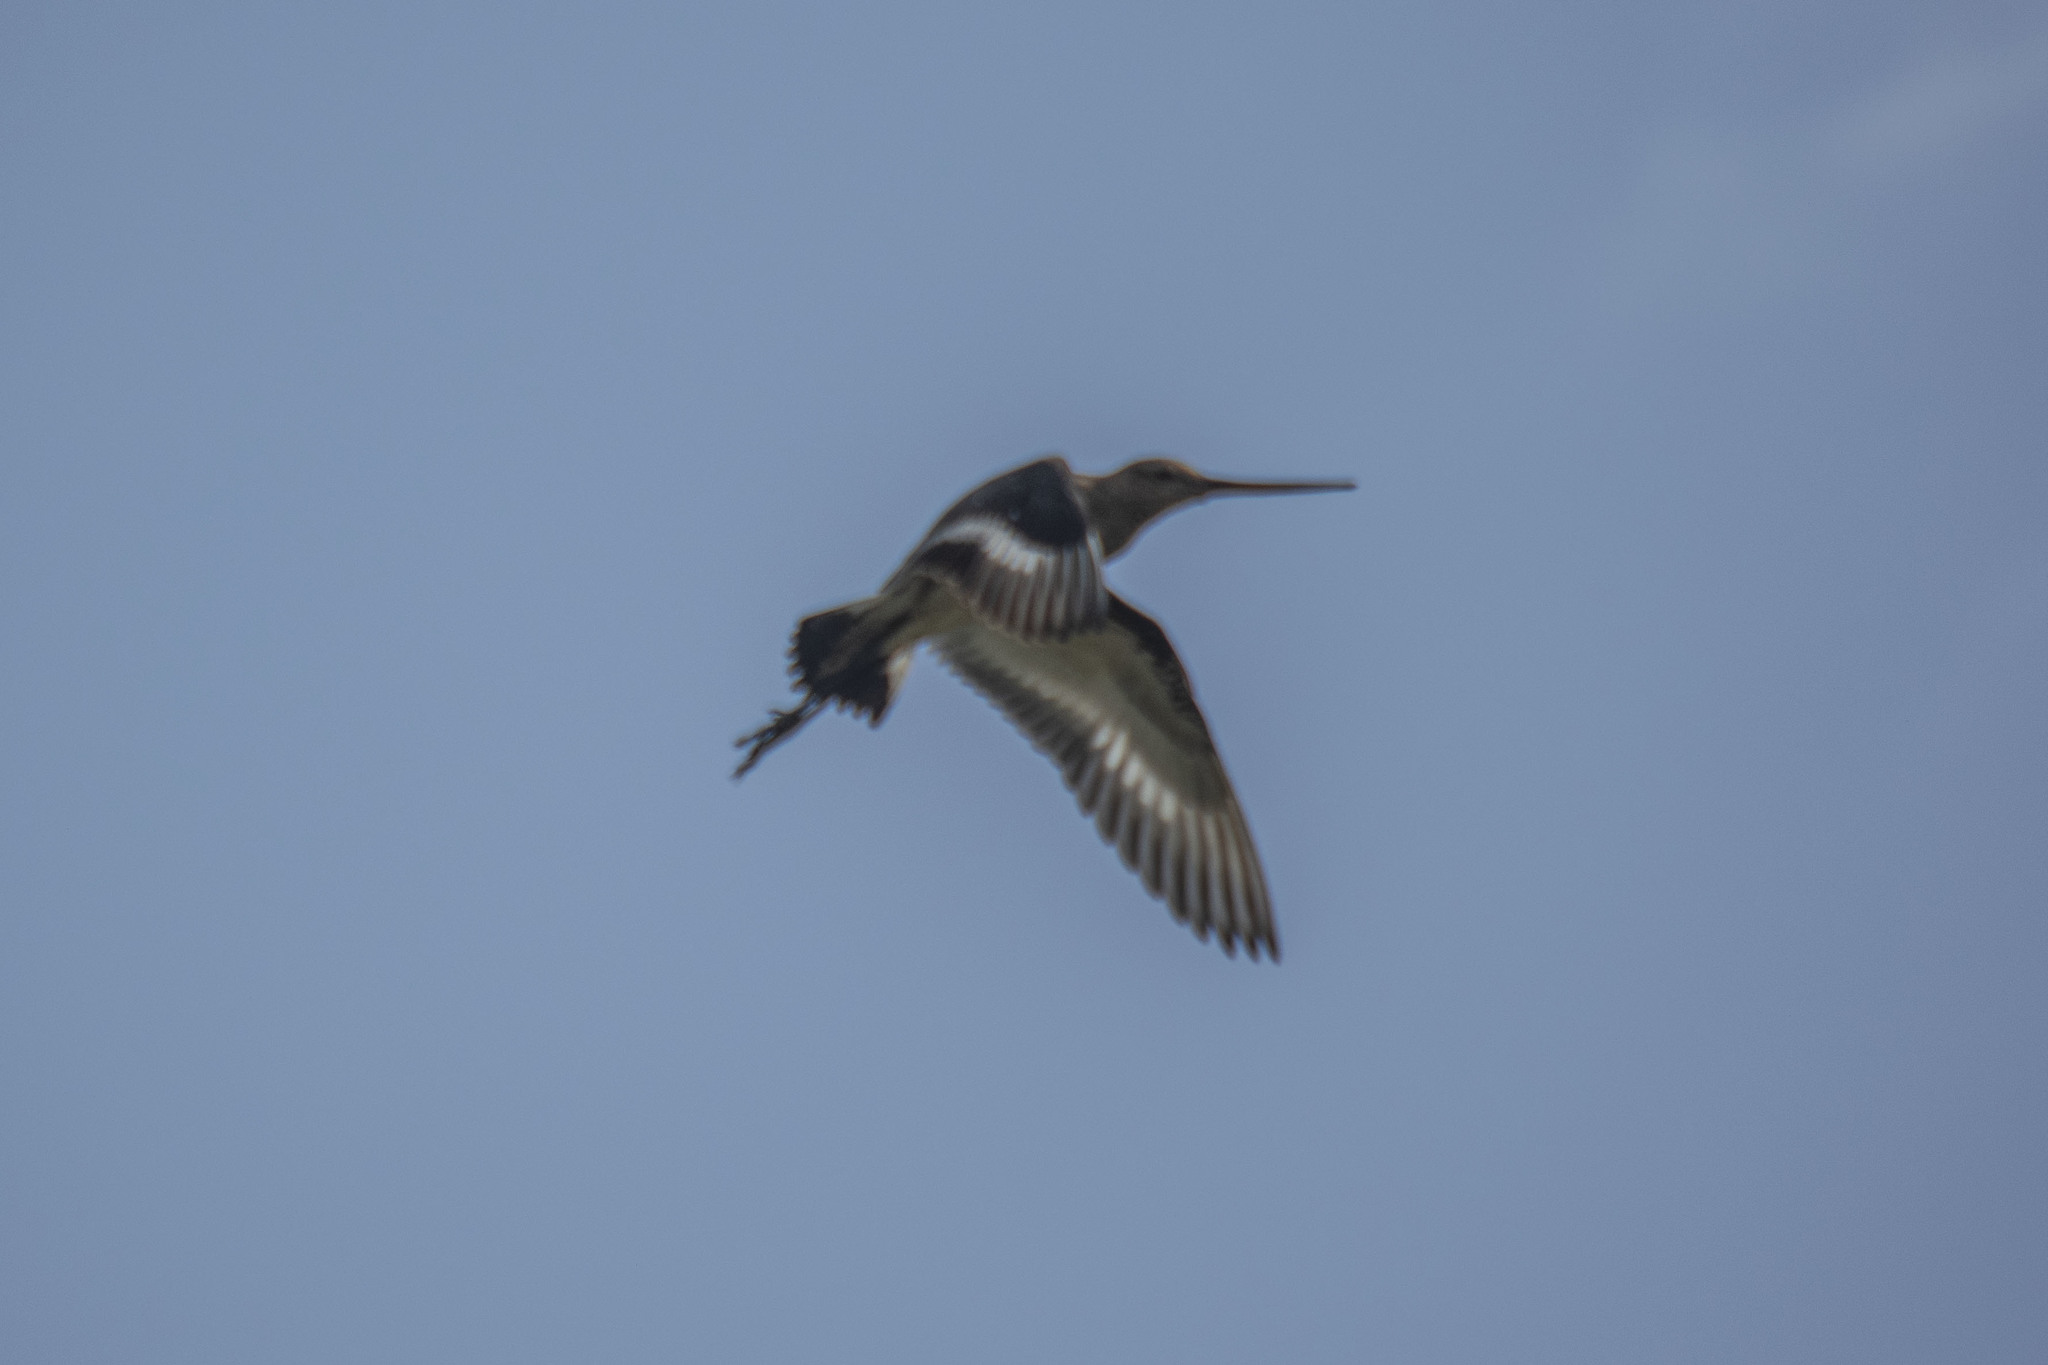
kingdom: Animalia
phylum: Chordata
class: Aves
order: Charadriiformes
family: Scolopacidae
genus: Limosa
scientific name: Limosa limosa
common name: Black-tailed godwit
